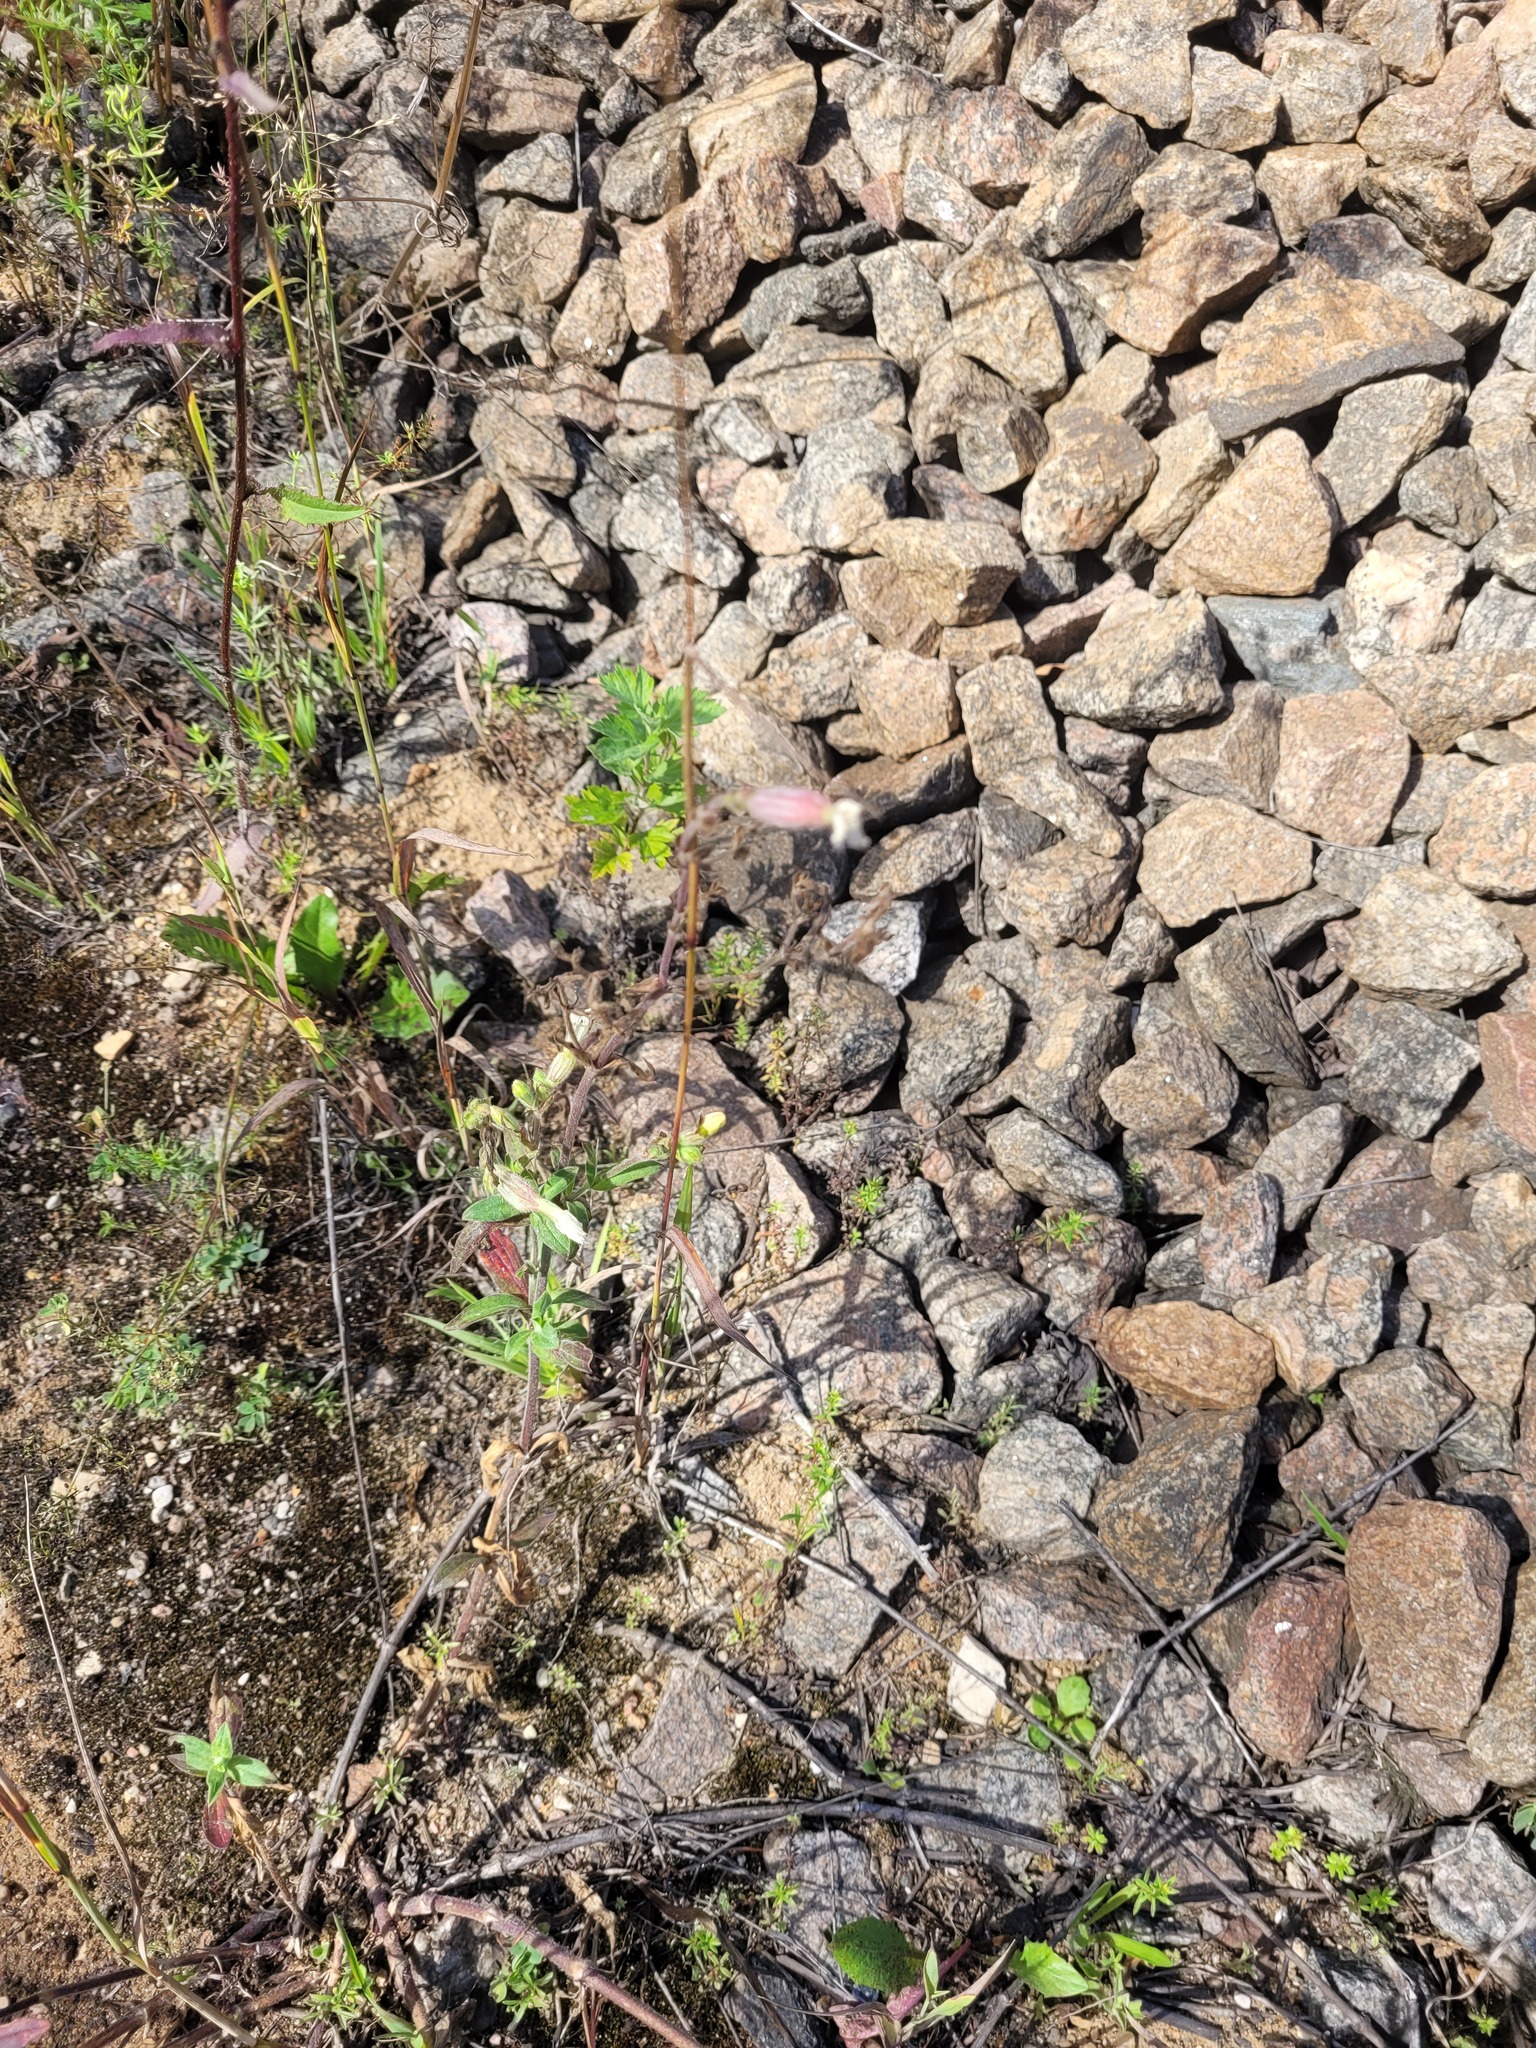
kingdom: Plantae
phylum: Tracheophyta
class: Magnoliopsida
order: Caryophyllales
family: Caryophyllaceae
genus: Silene
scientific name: Silene latifolia
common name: White campion
